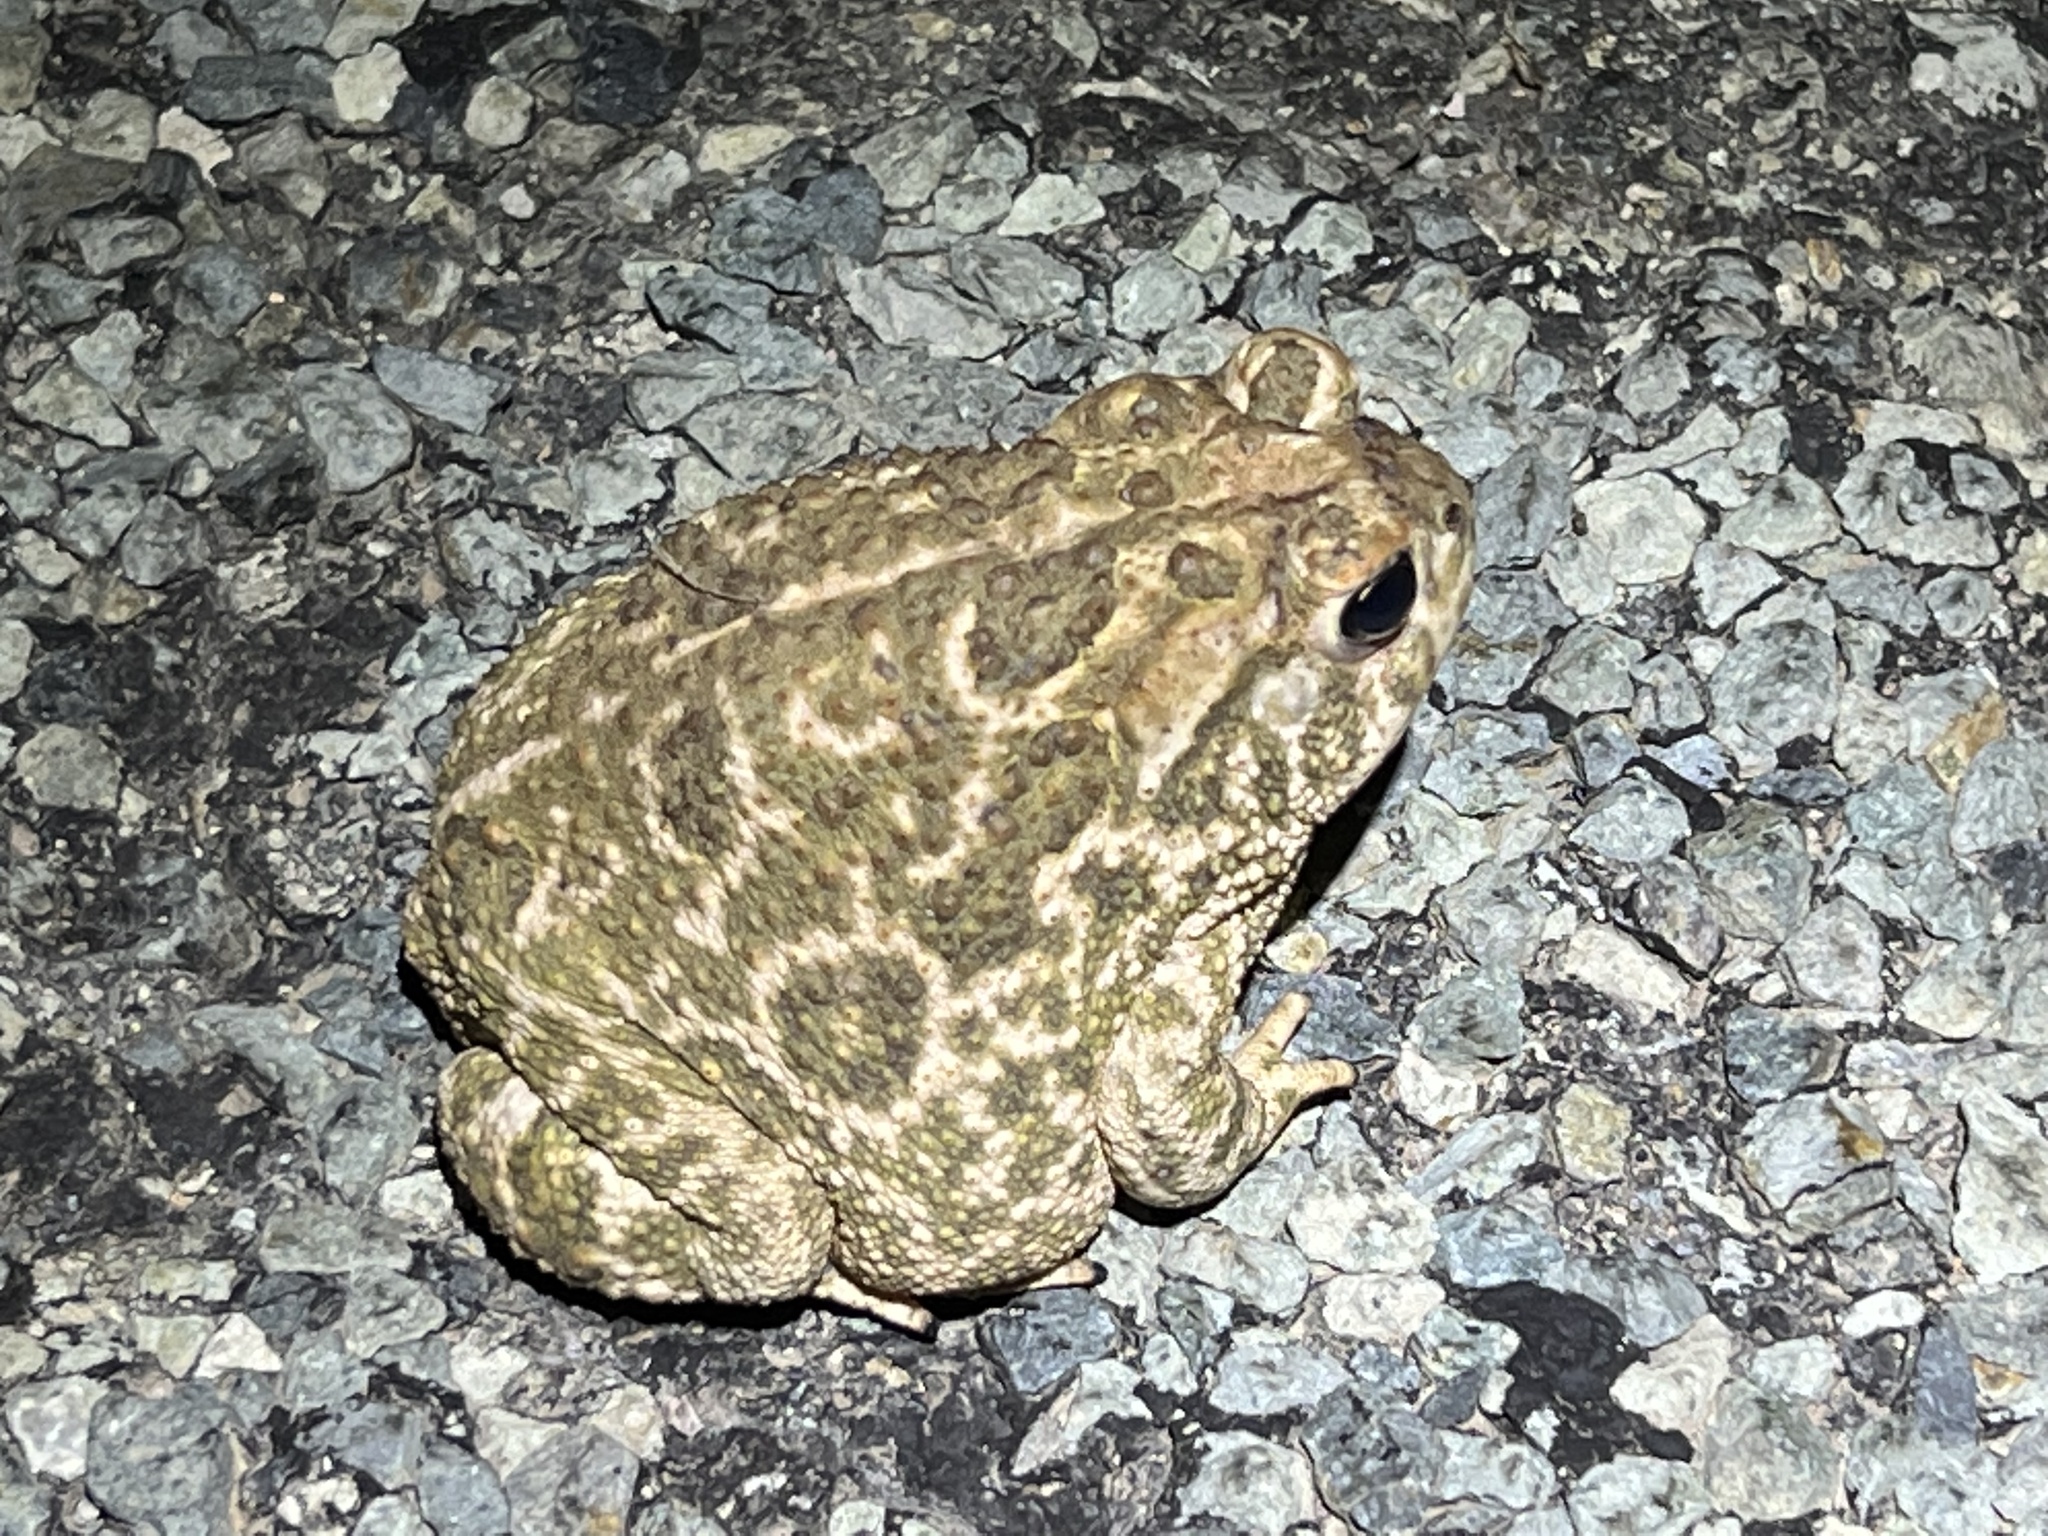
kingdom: Animalia
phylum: Chordata
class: Amphibia
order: Anura
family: Bufonidae
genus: Anaxyrus
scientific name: Anaxyrus cognatus
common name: Great plains toad
